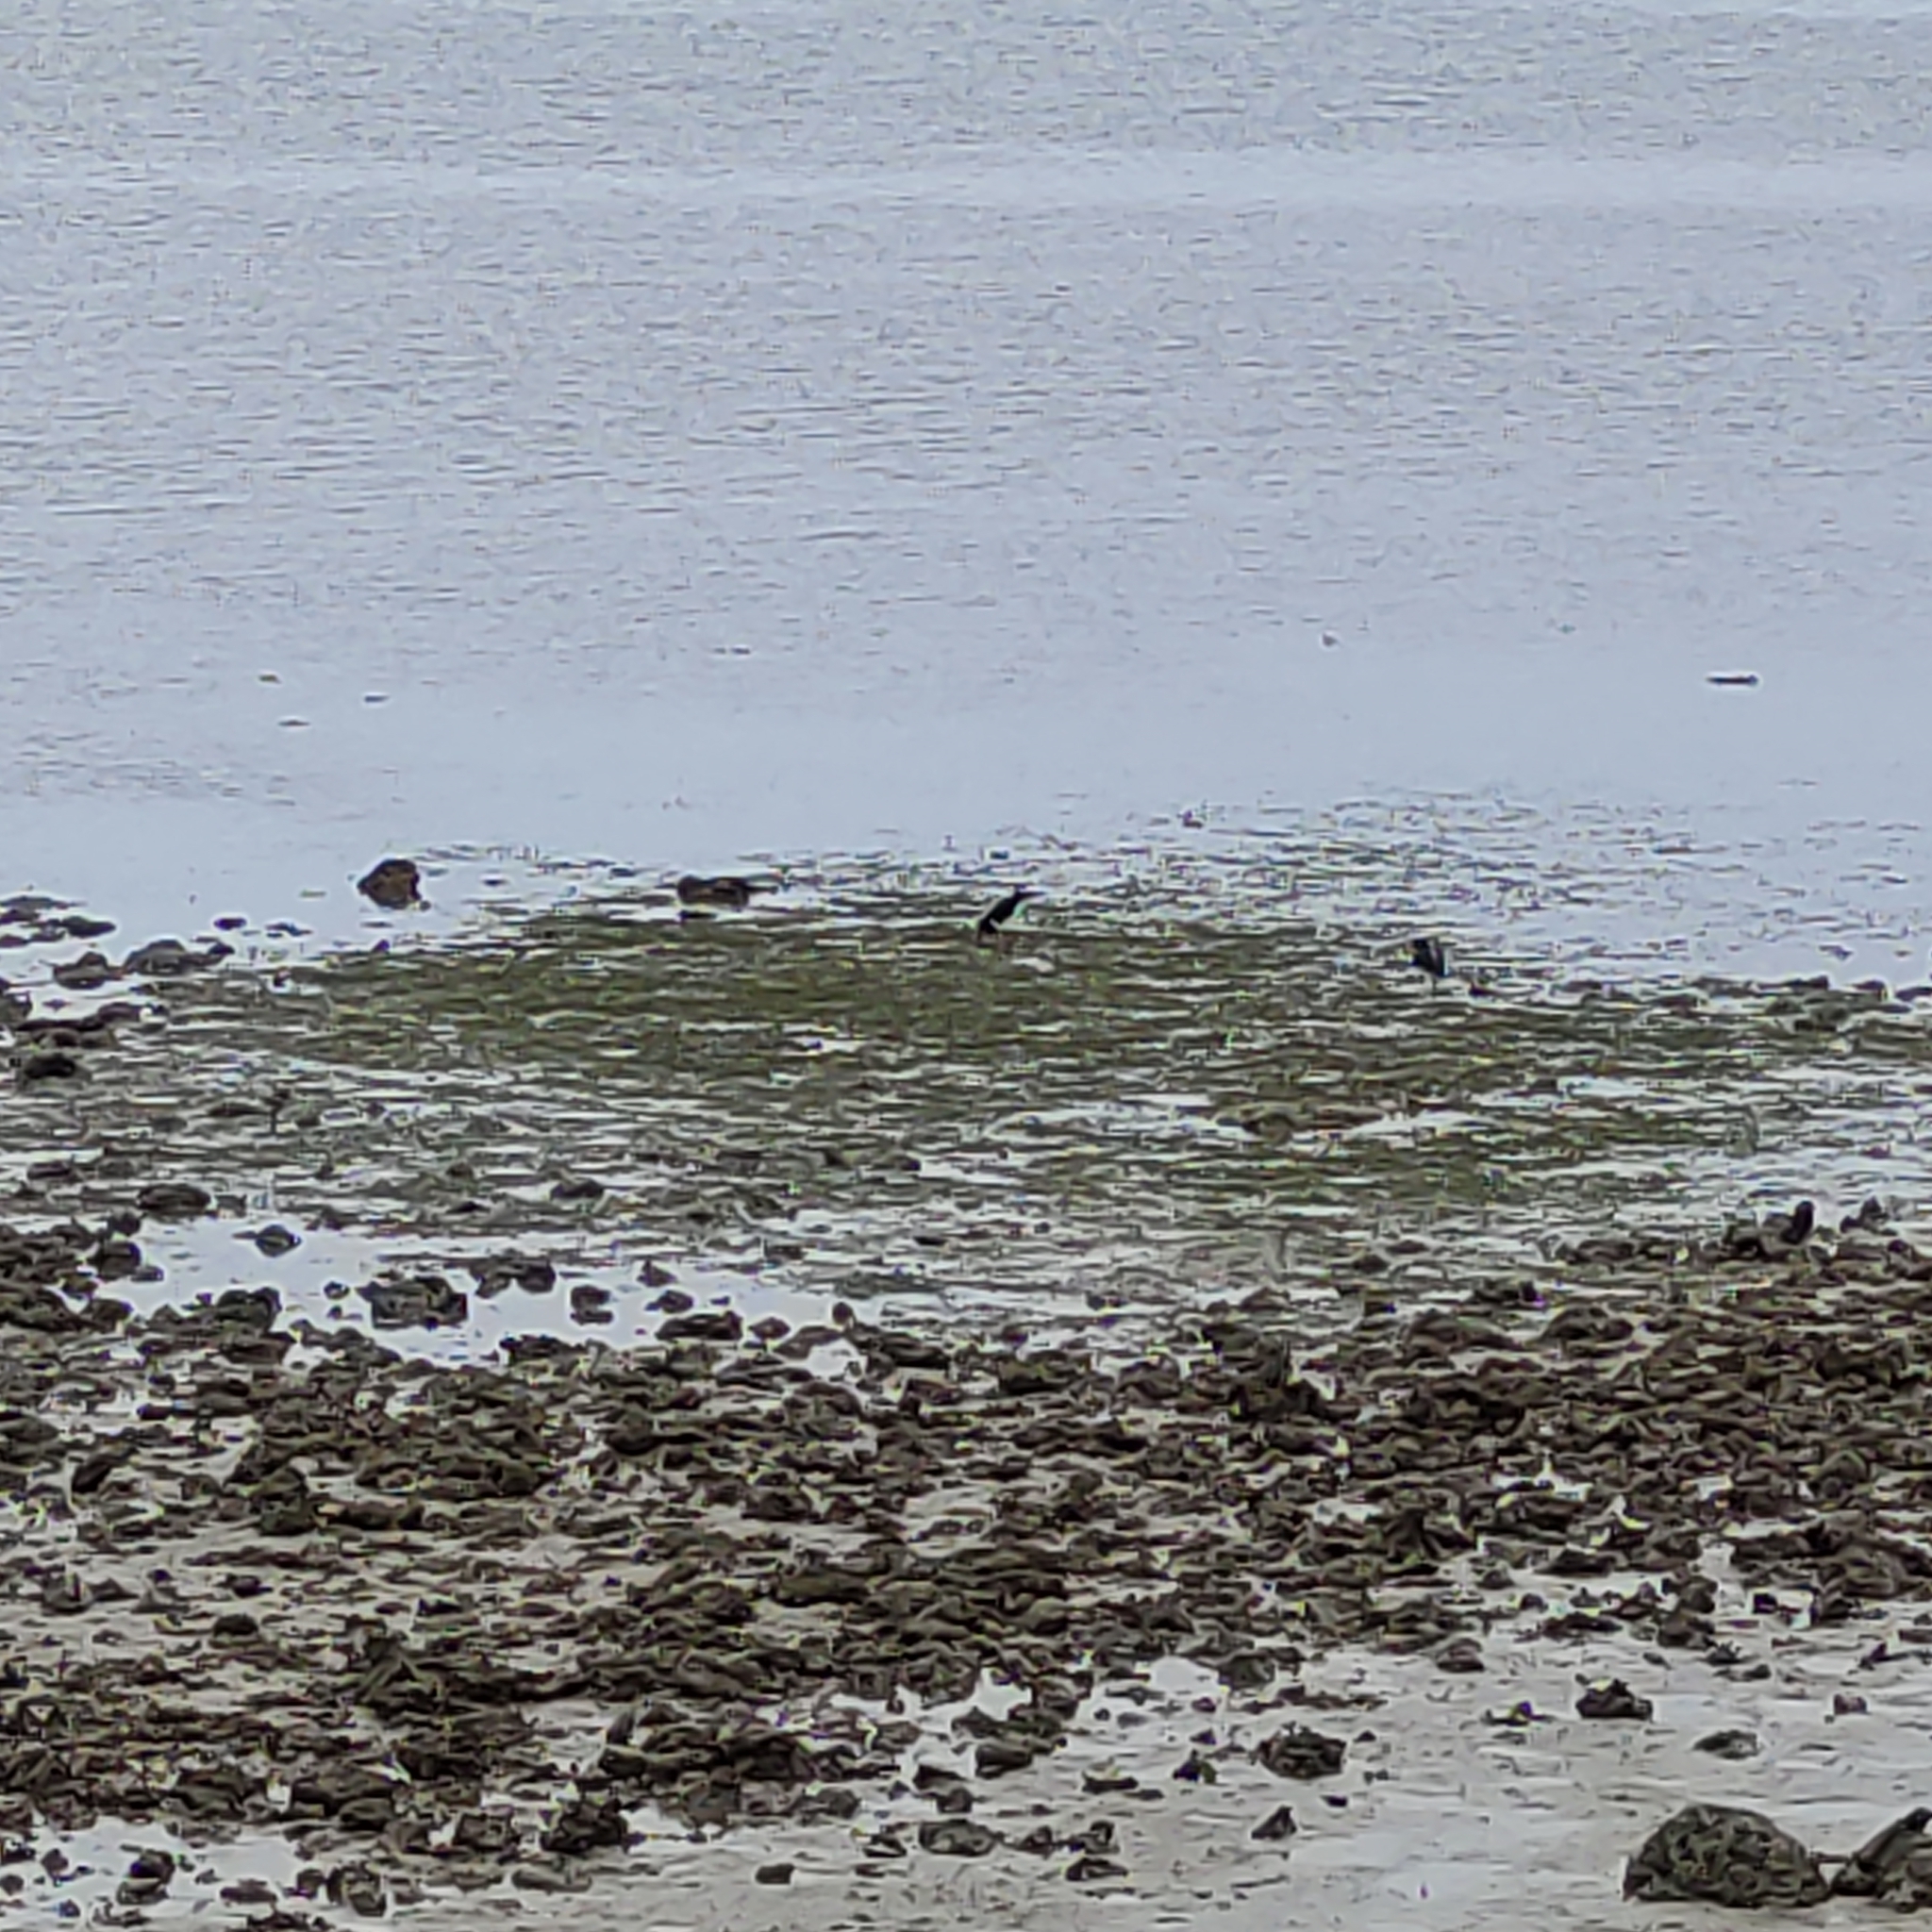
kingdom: Animalia
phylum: Chordata
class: Aves
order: Charadriiformes
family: Haematopodidae
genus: Haematopus
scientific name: Haematopus longirostris
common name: Pied oystercatcher
